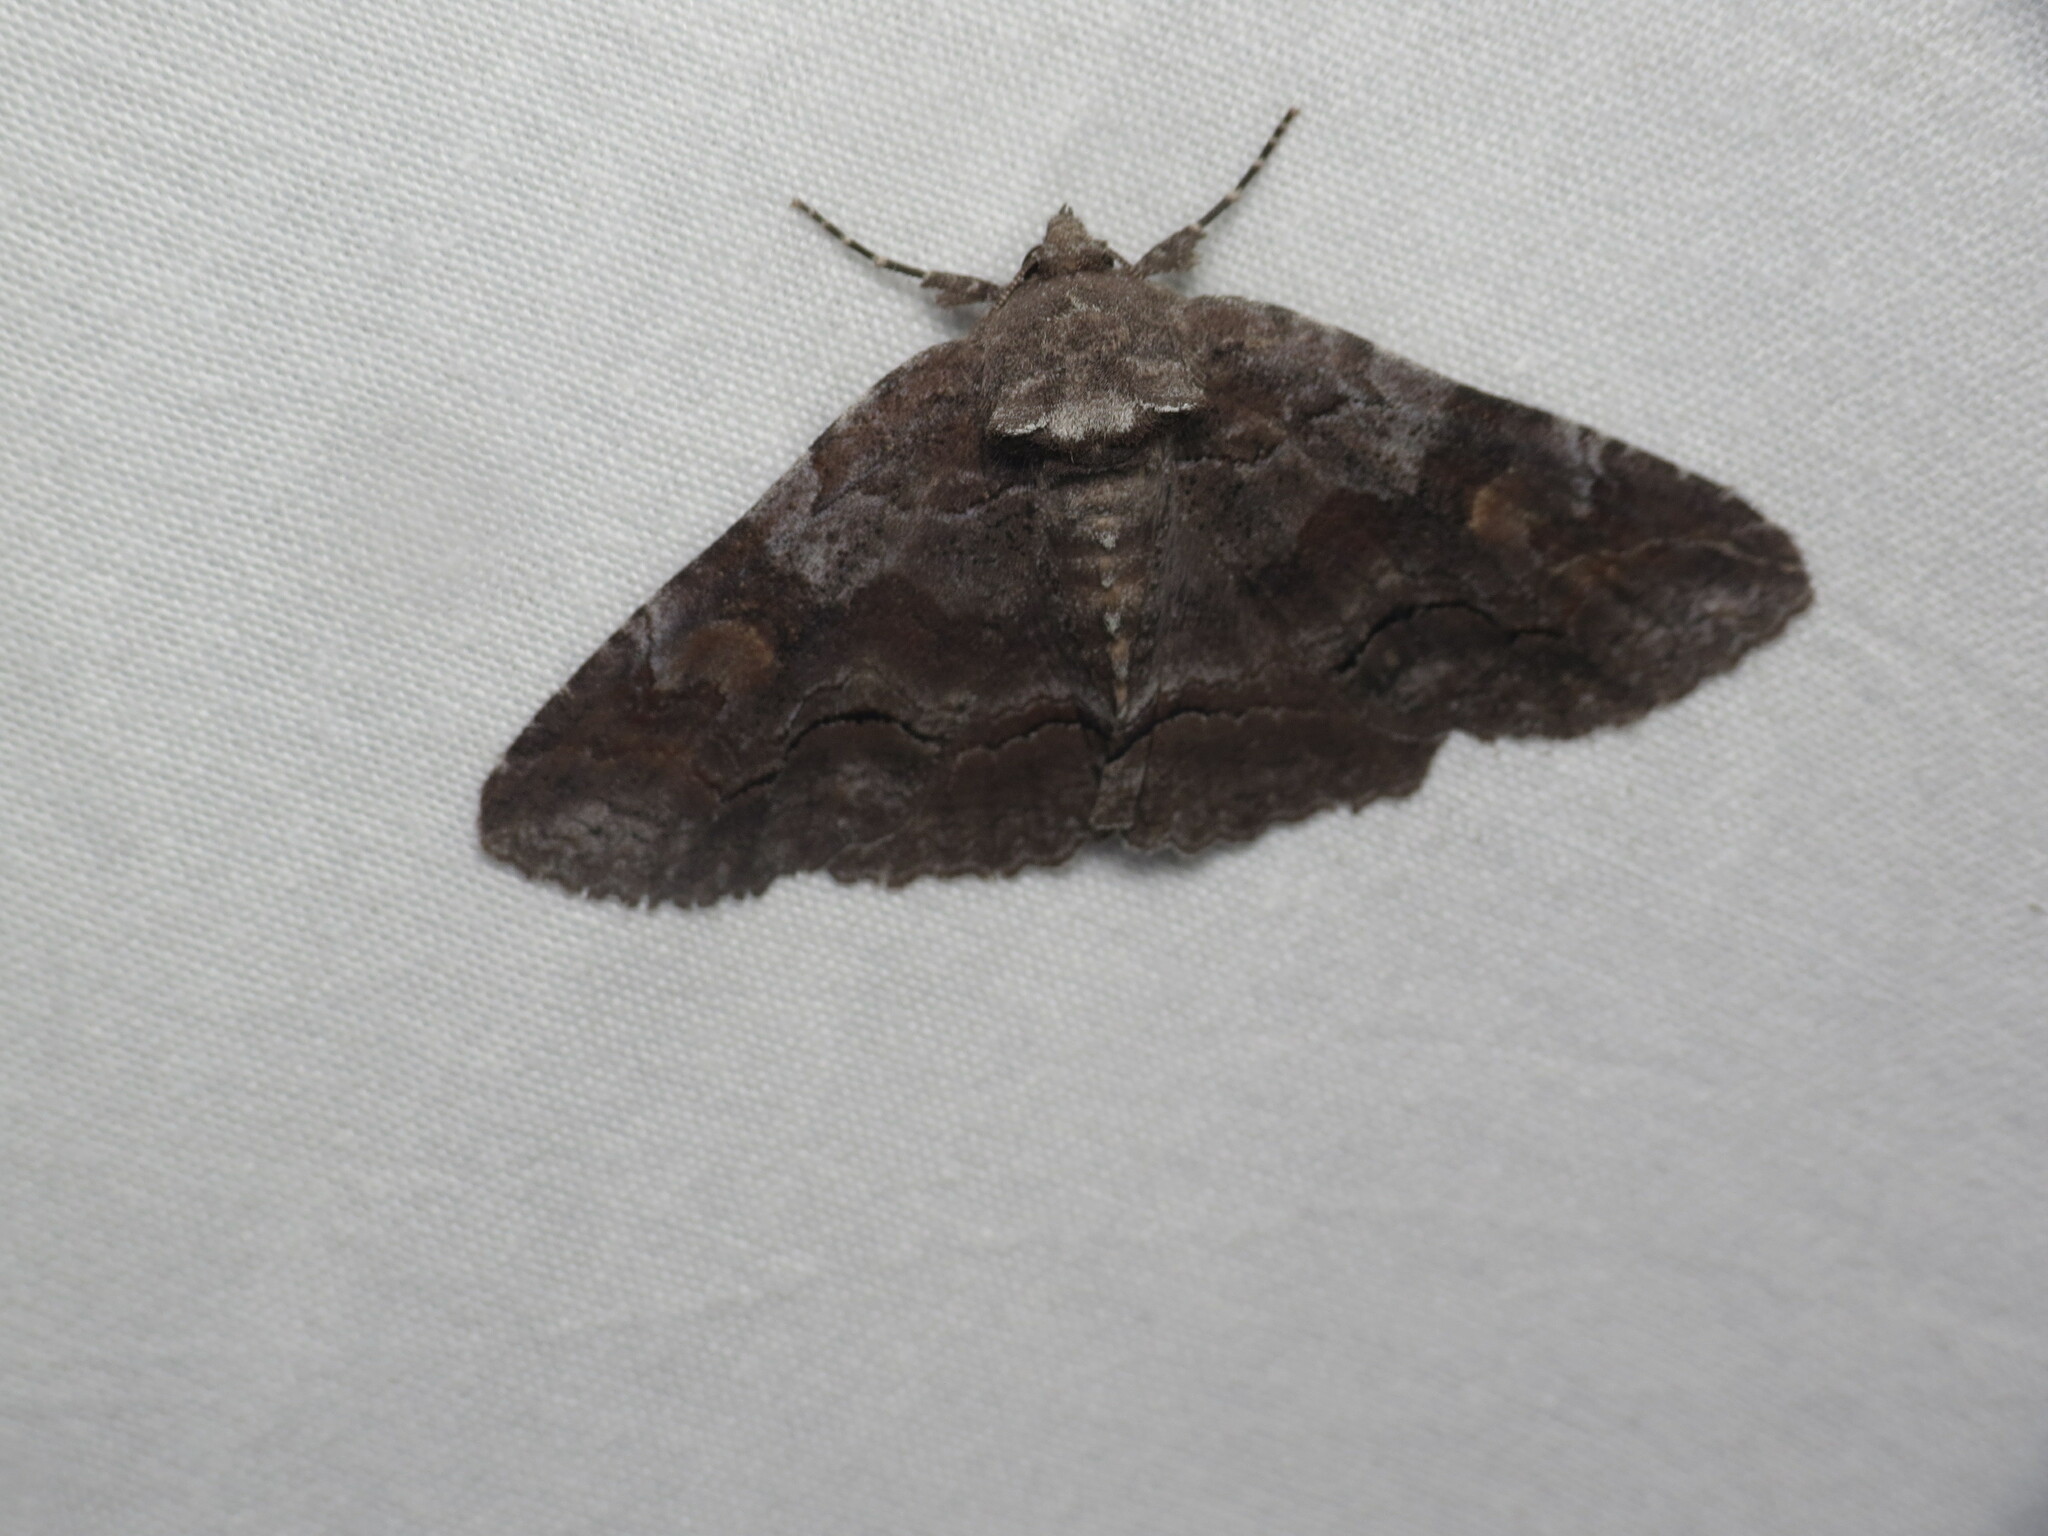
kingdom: Animalia
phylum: Arthropoda
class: Insecta
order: Lepidoptera
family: Erebidae
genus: Zale
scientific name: Zale submediana
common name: Gray spring zale
